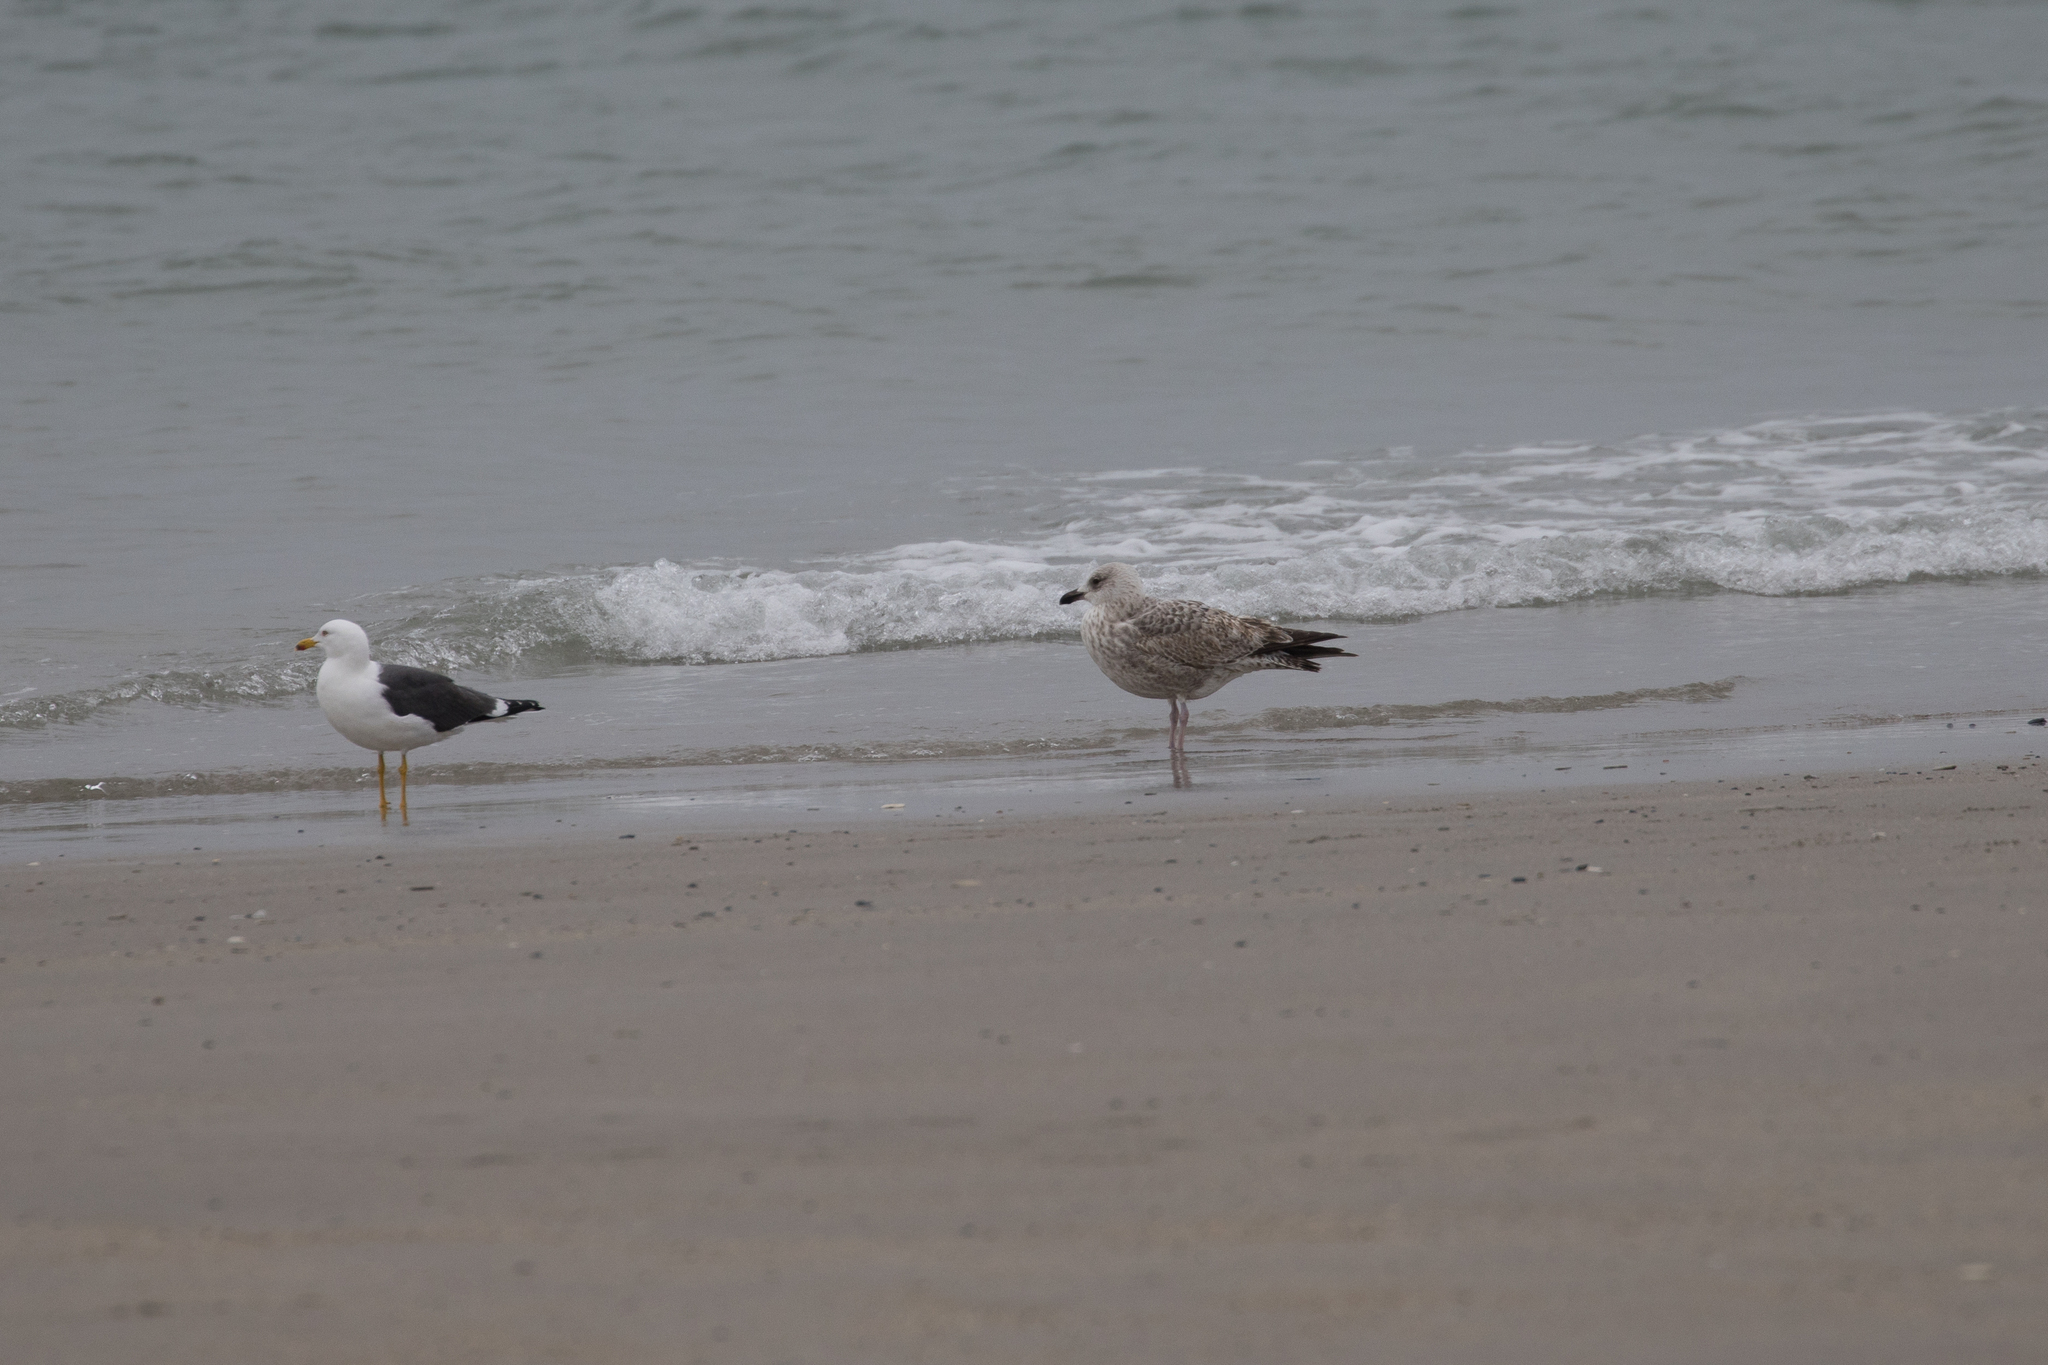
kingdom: Animalia
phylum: Chordata
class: Aves
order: Charadriiformes
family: Laridae
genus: Larus
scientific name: Larus fuscus
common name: Lesser black-backed gull
